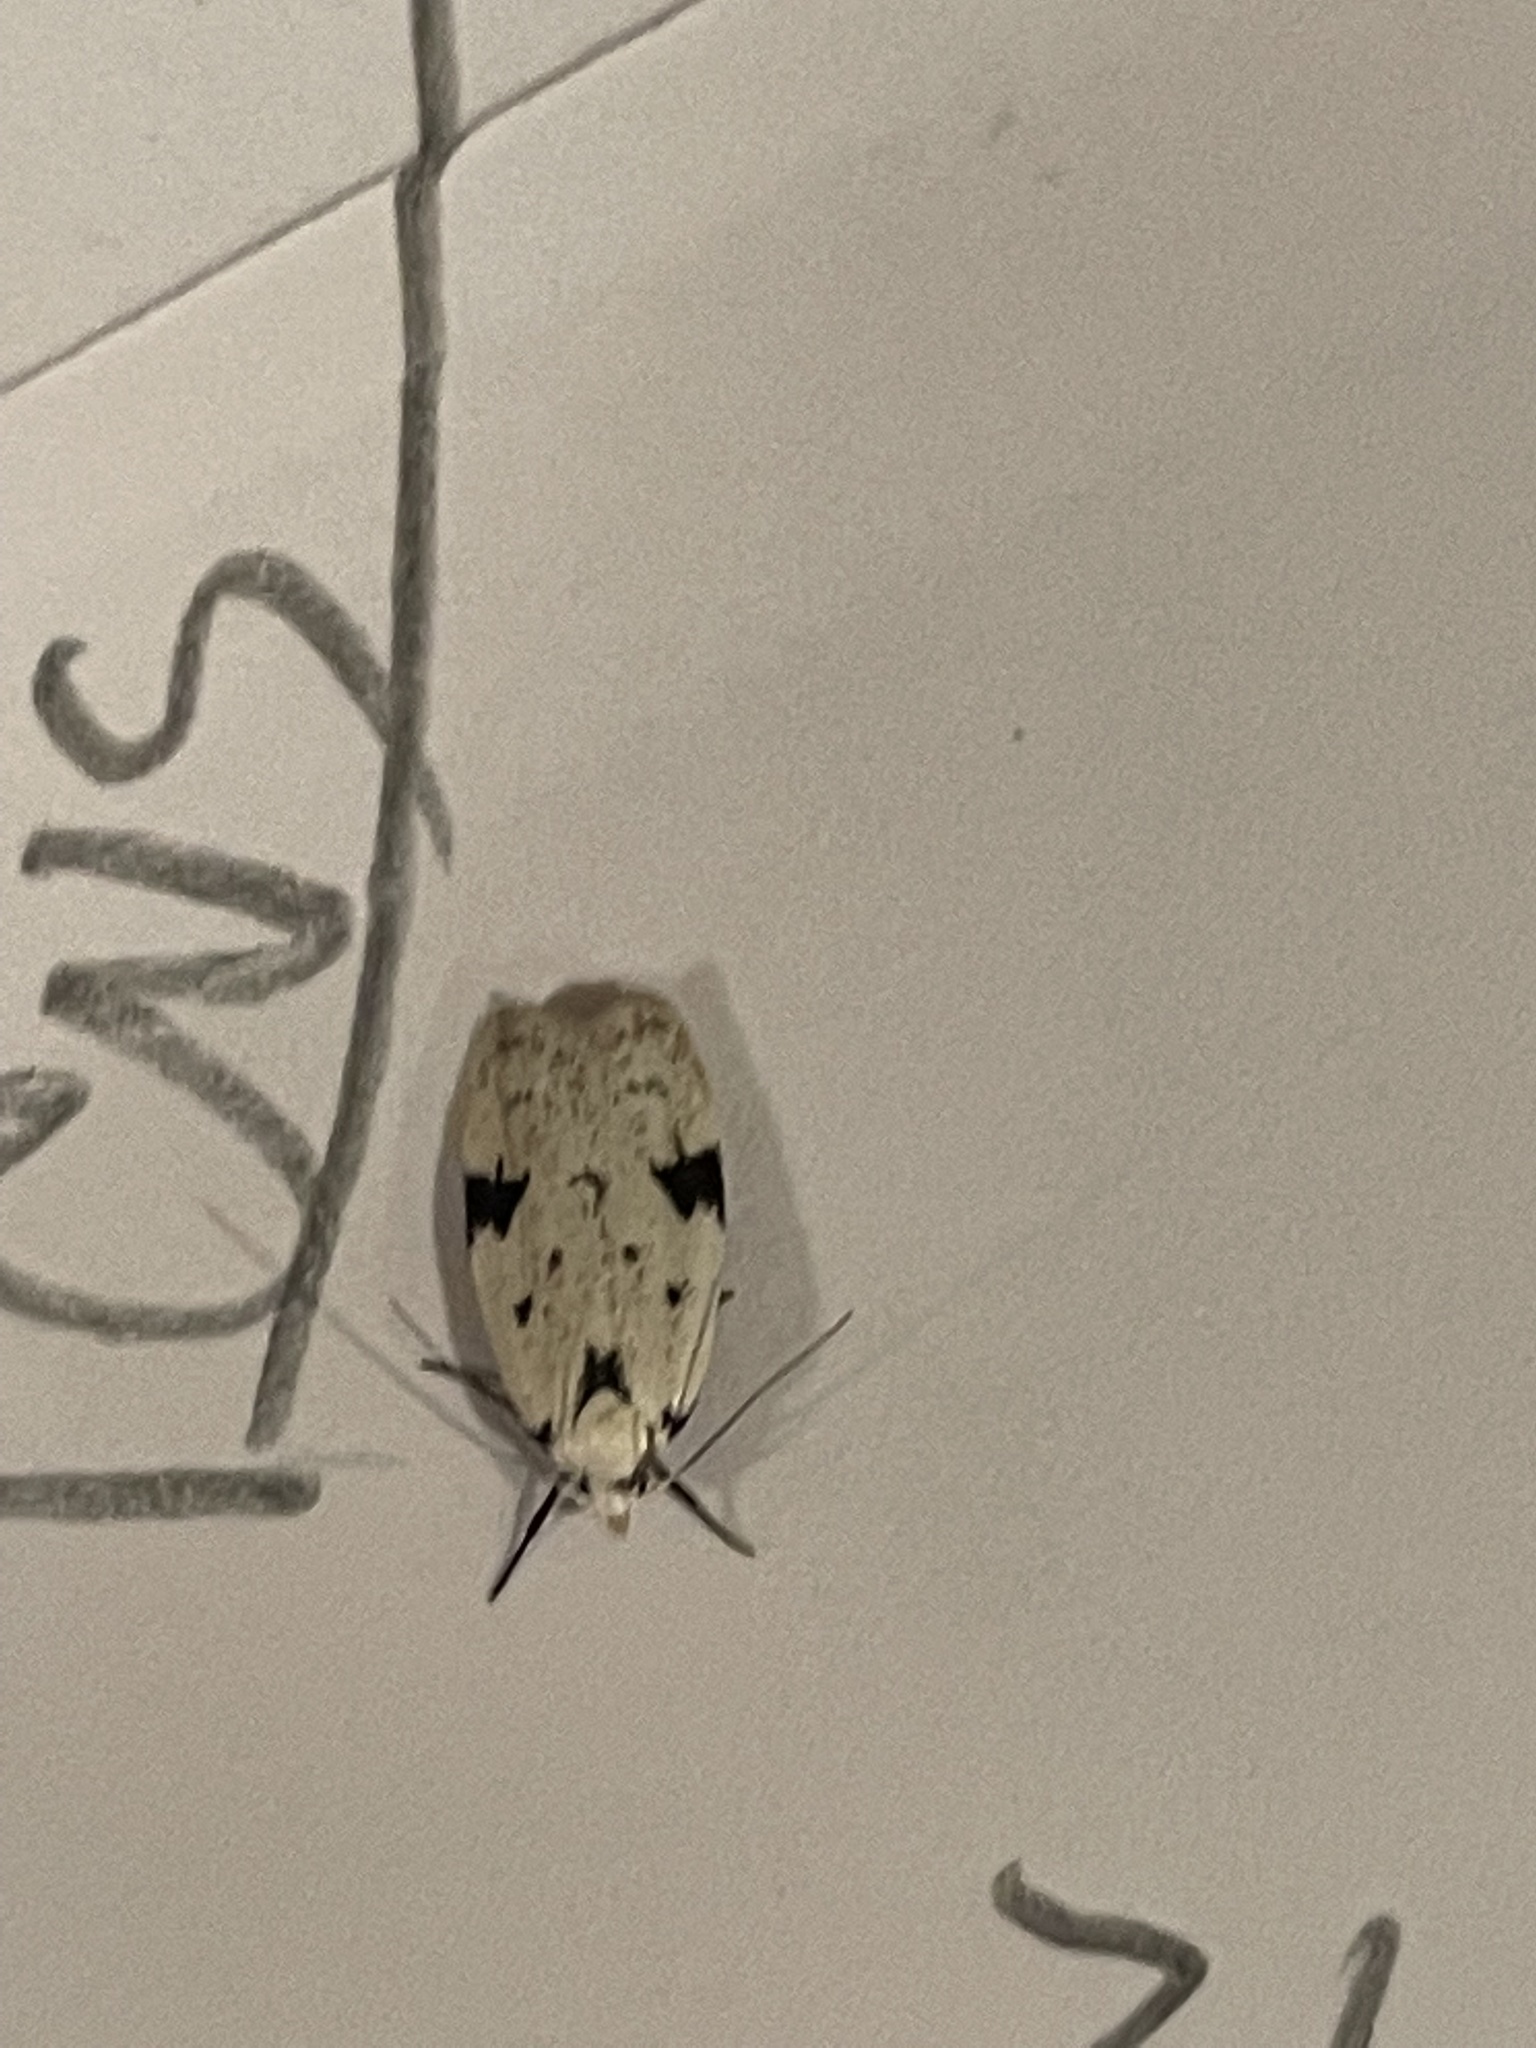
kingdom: Animalia
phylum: Arthropoda
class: Insecta
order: Lepidoptera
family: Oecophoridae
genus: Inga
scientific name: Inga sparsiciliella
